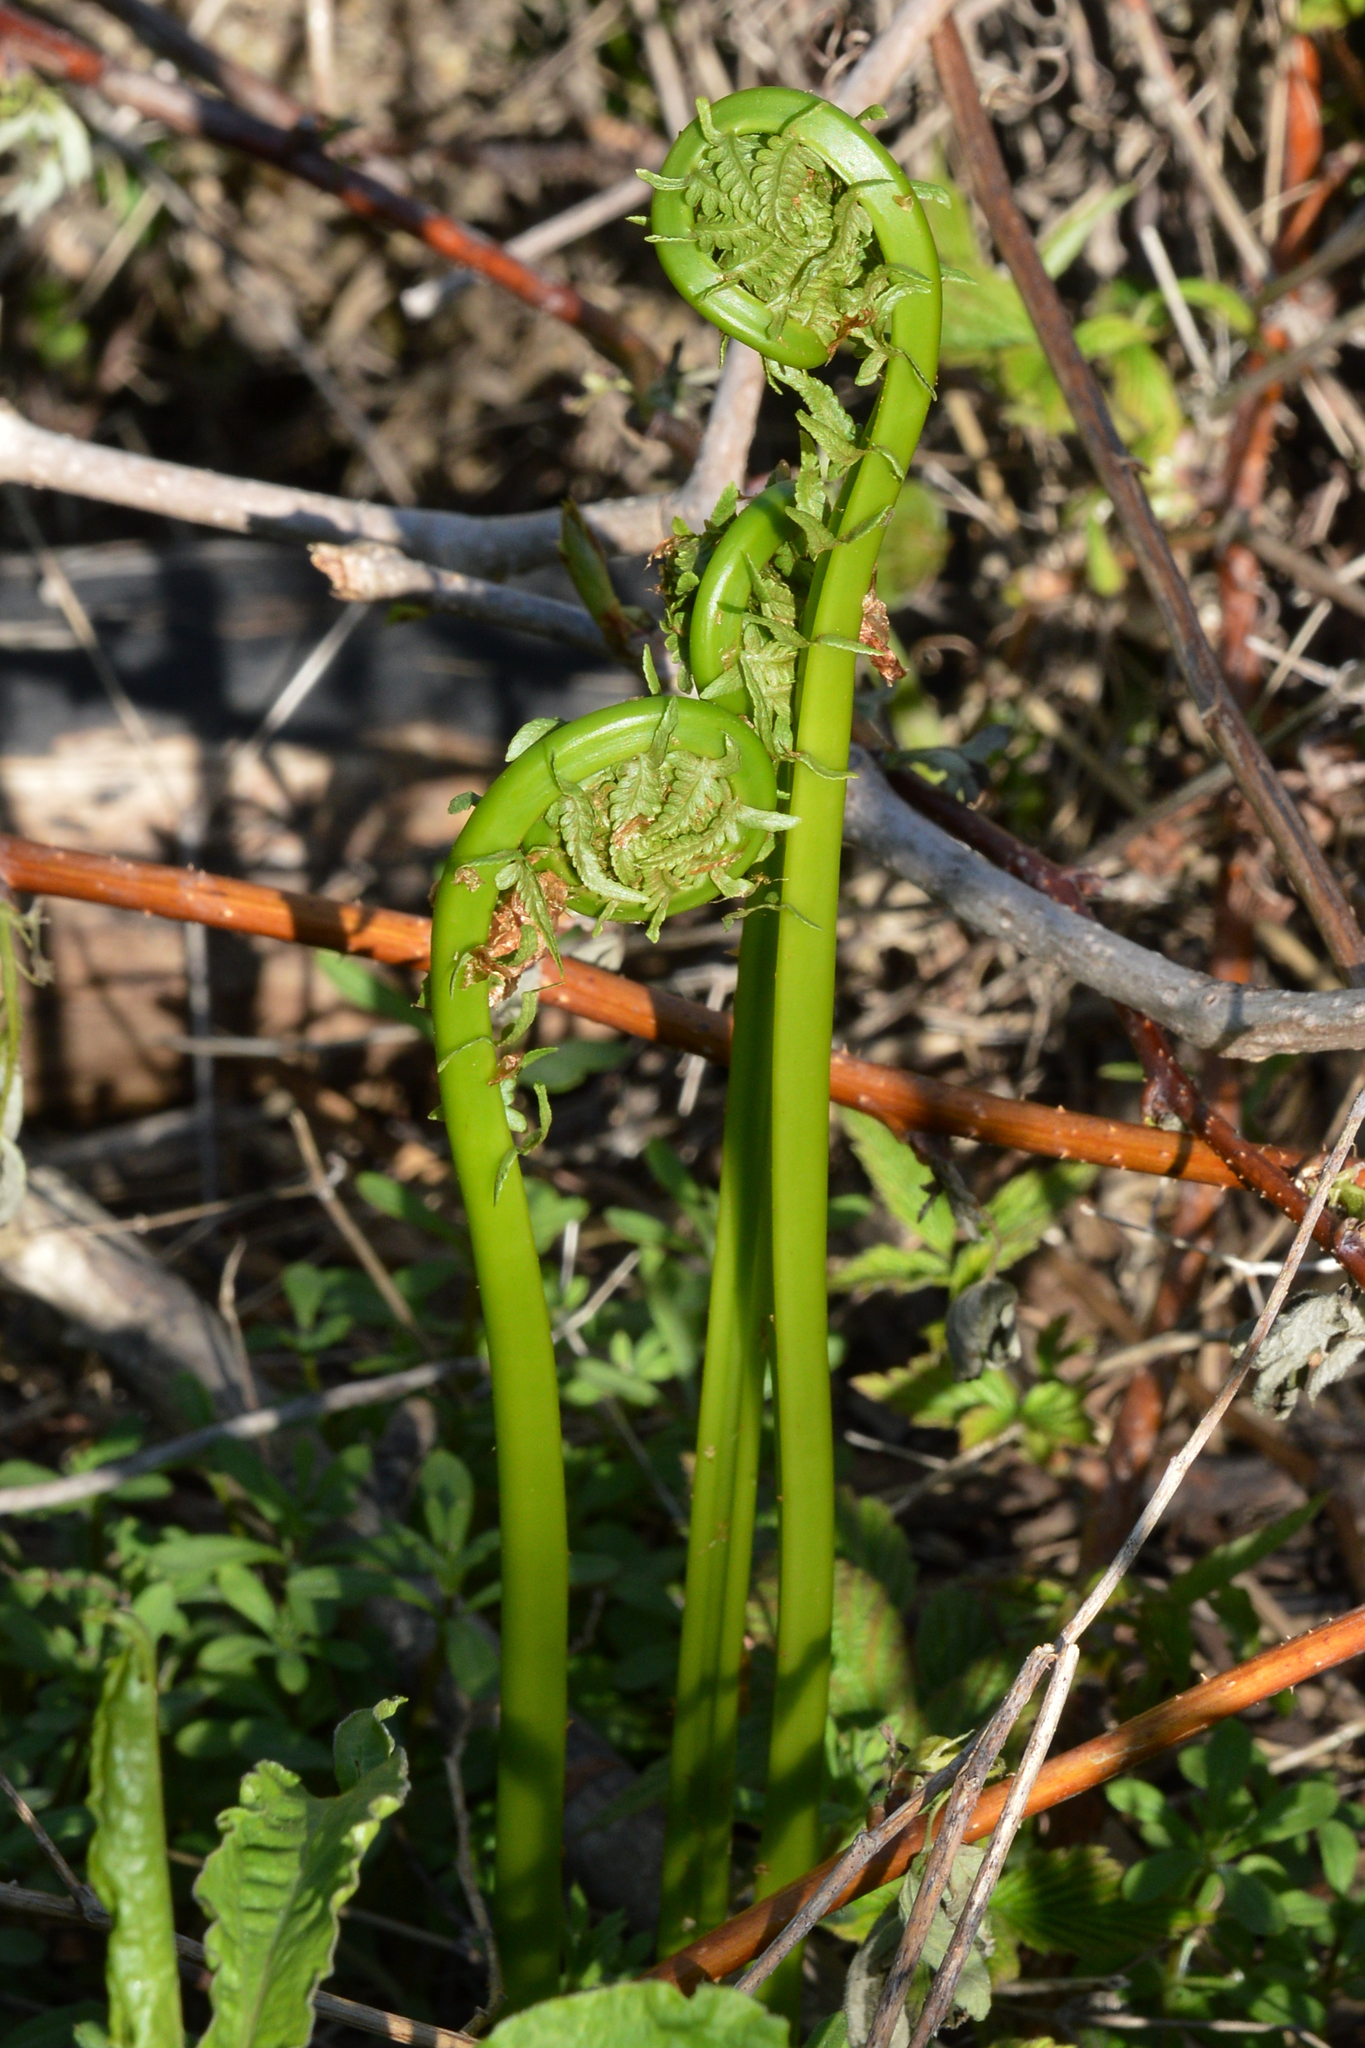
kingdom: Plantae
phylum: Tracheophyta
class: Polypodiopsida
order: Polypodiales
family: Onocleaceae
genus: Matteuccia
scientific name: Matteuccia struthiopteris
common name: Ostrich fern
